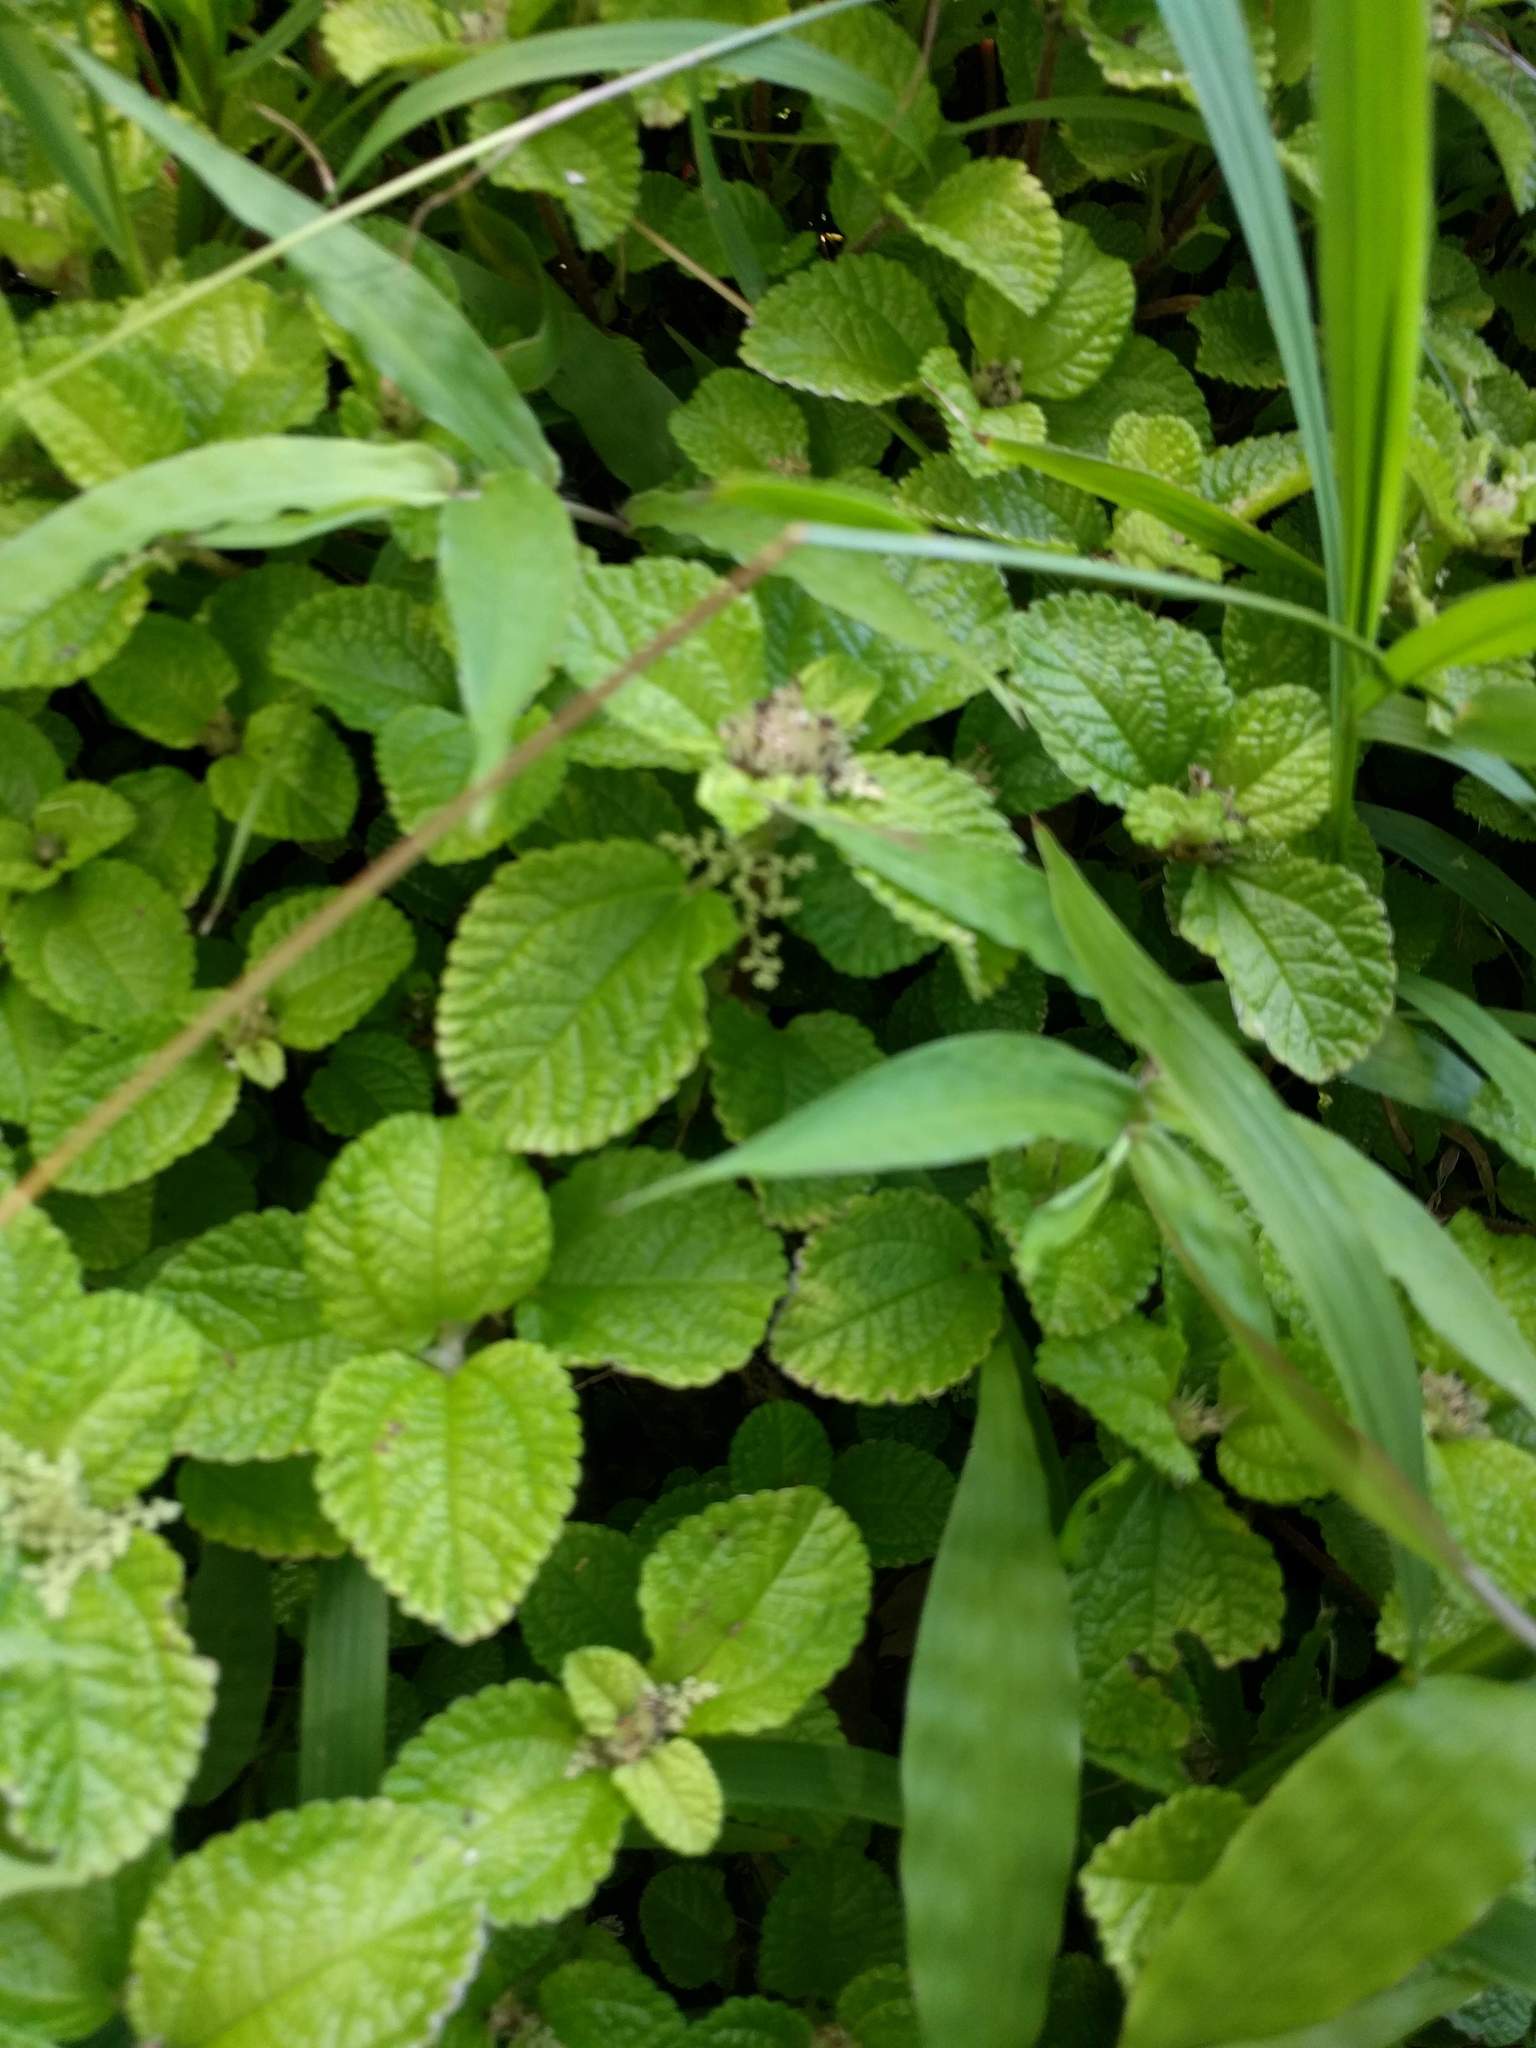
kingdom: Plantae
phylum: Tracheophyta
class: Magnoliopsida
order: Rosales
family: Urticaceae
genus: Pilea
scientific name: Pilea nummulariifolia
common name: Creeping-charlie
